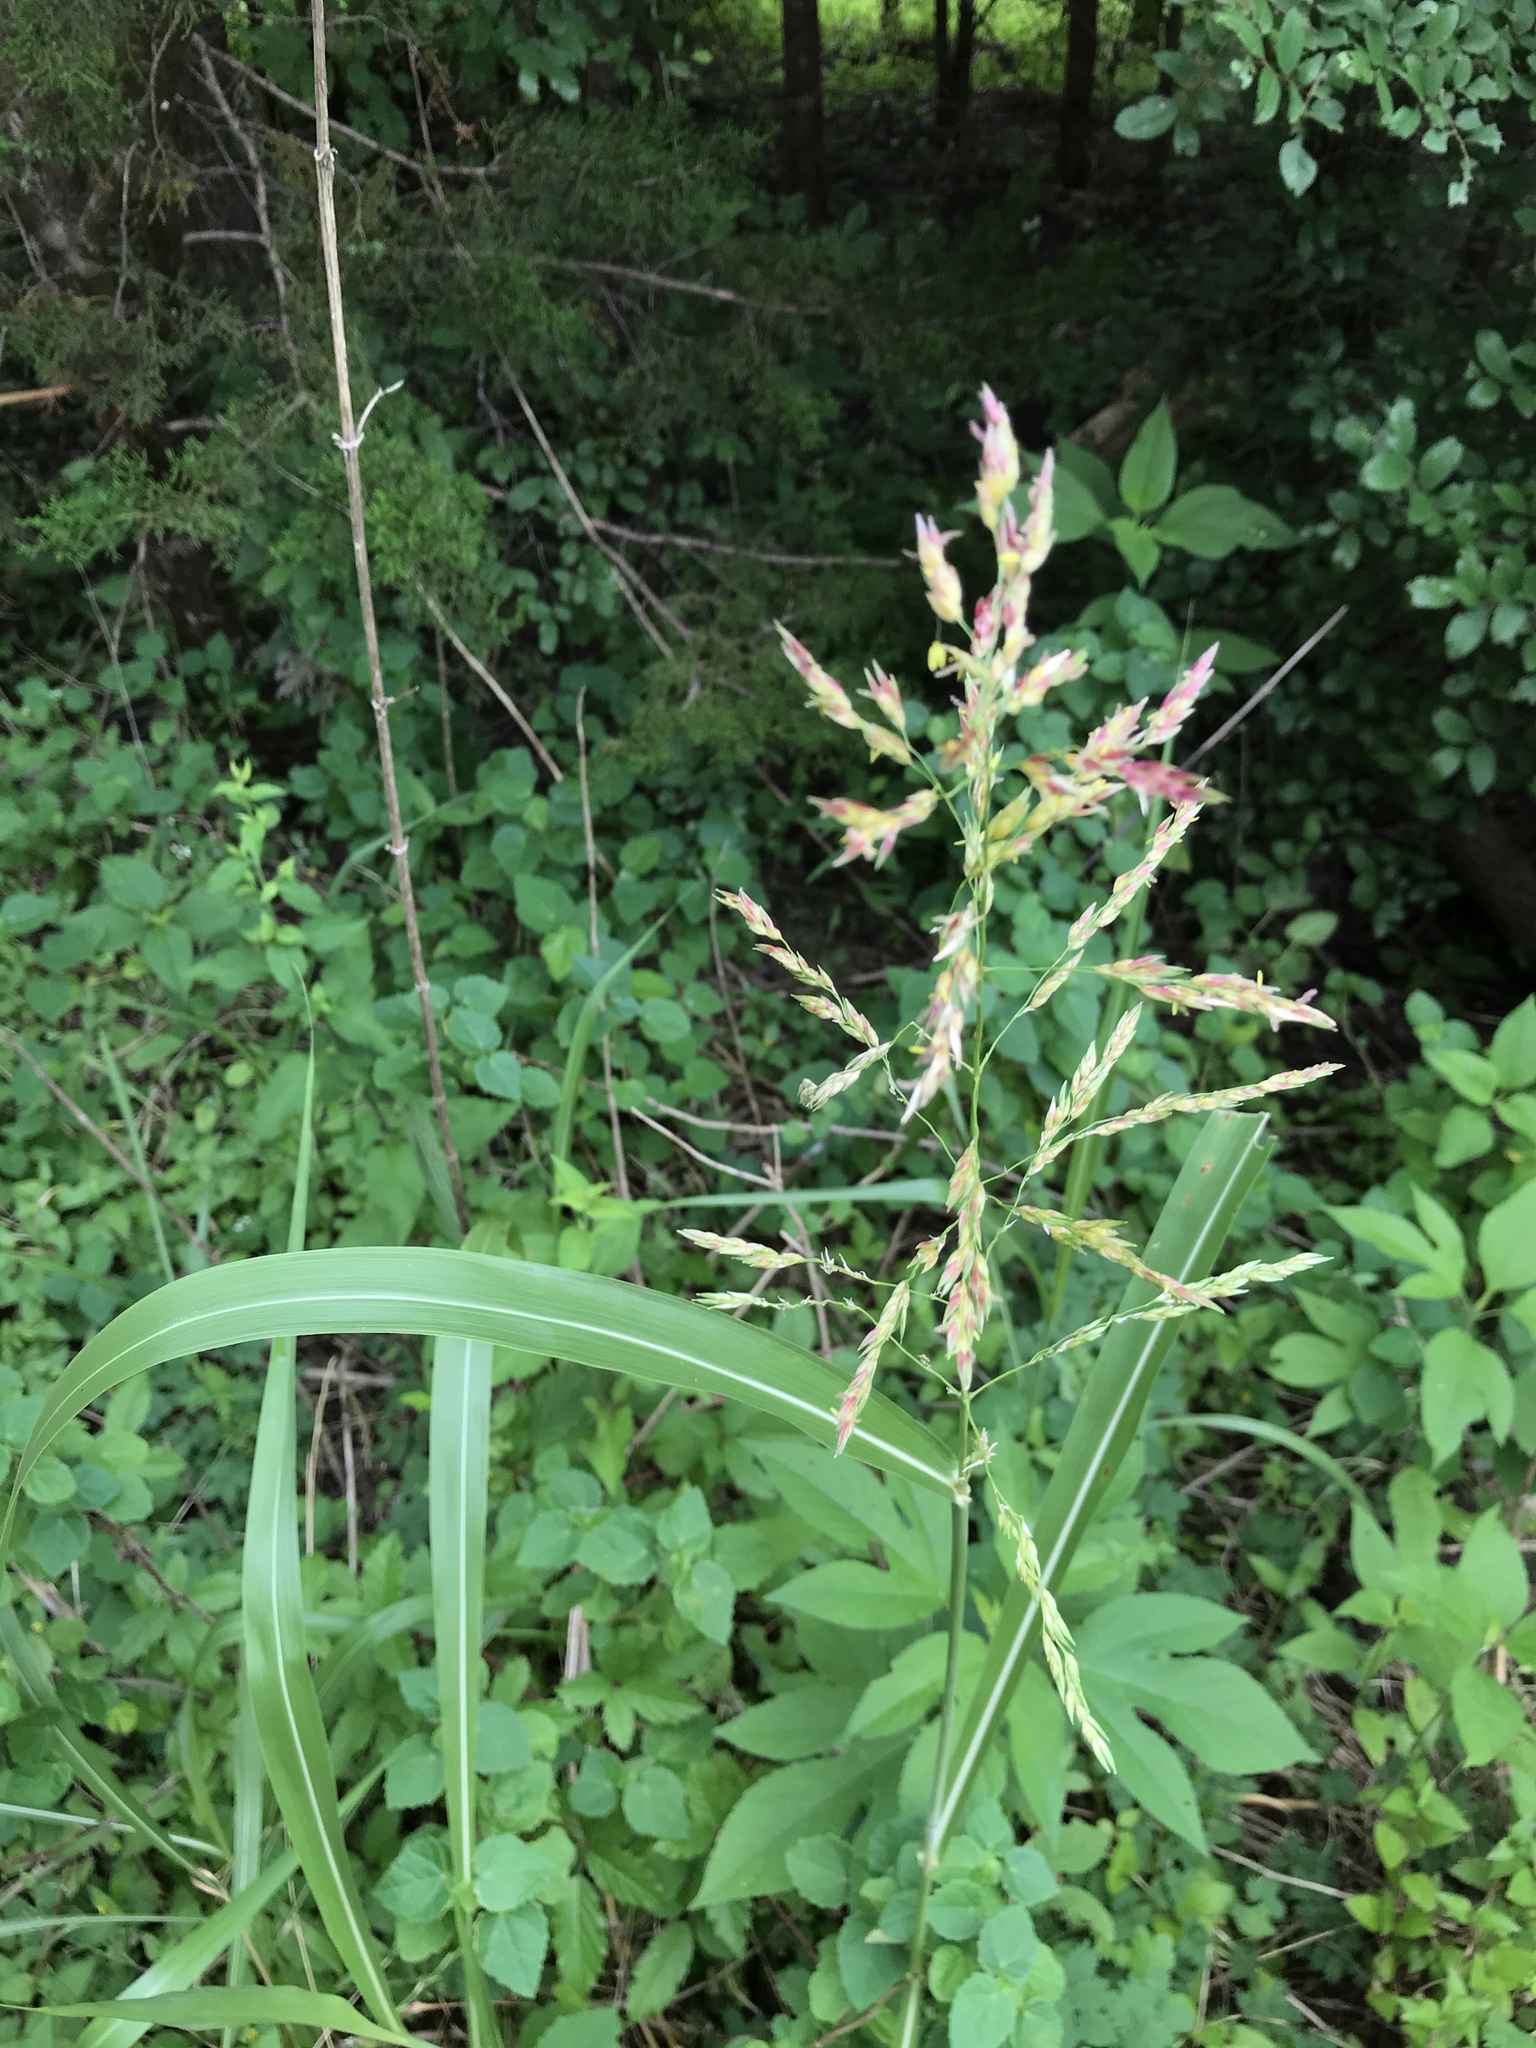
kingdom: Plantae
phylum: Tracheophyta
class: Liliopsida
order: Poales
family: Poaceae
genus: Sorghum
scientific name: Sorghum halepense
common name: Johnson-grass
